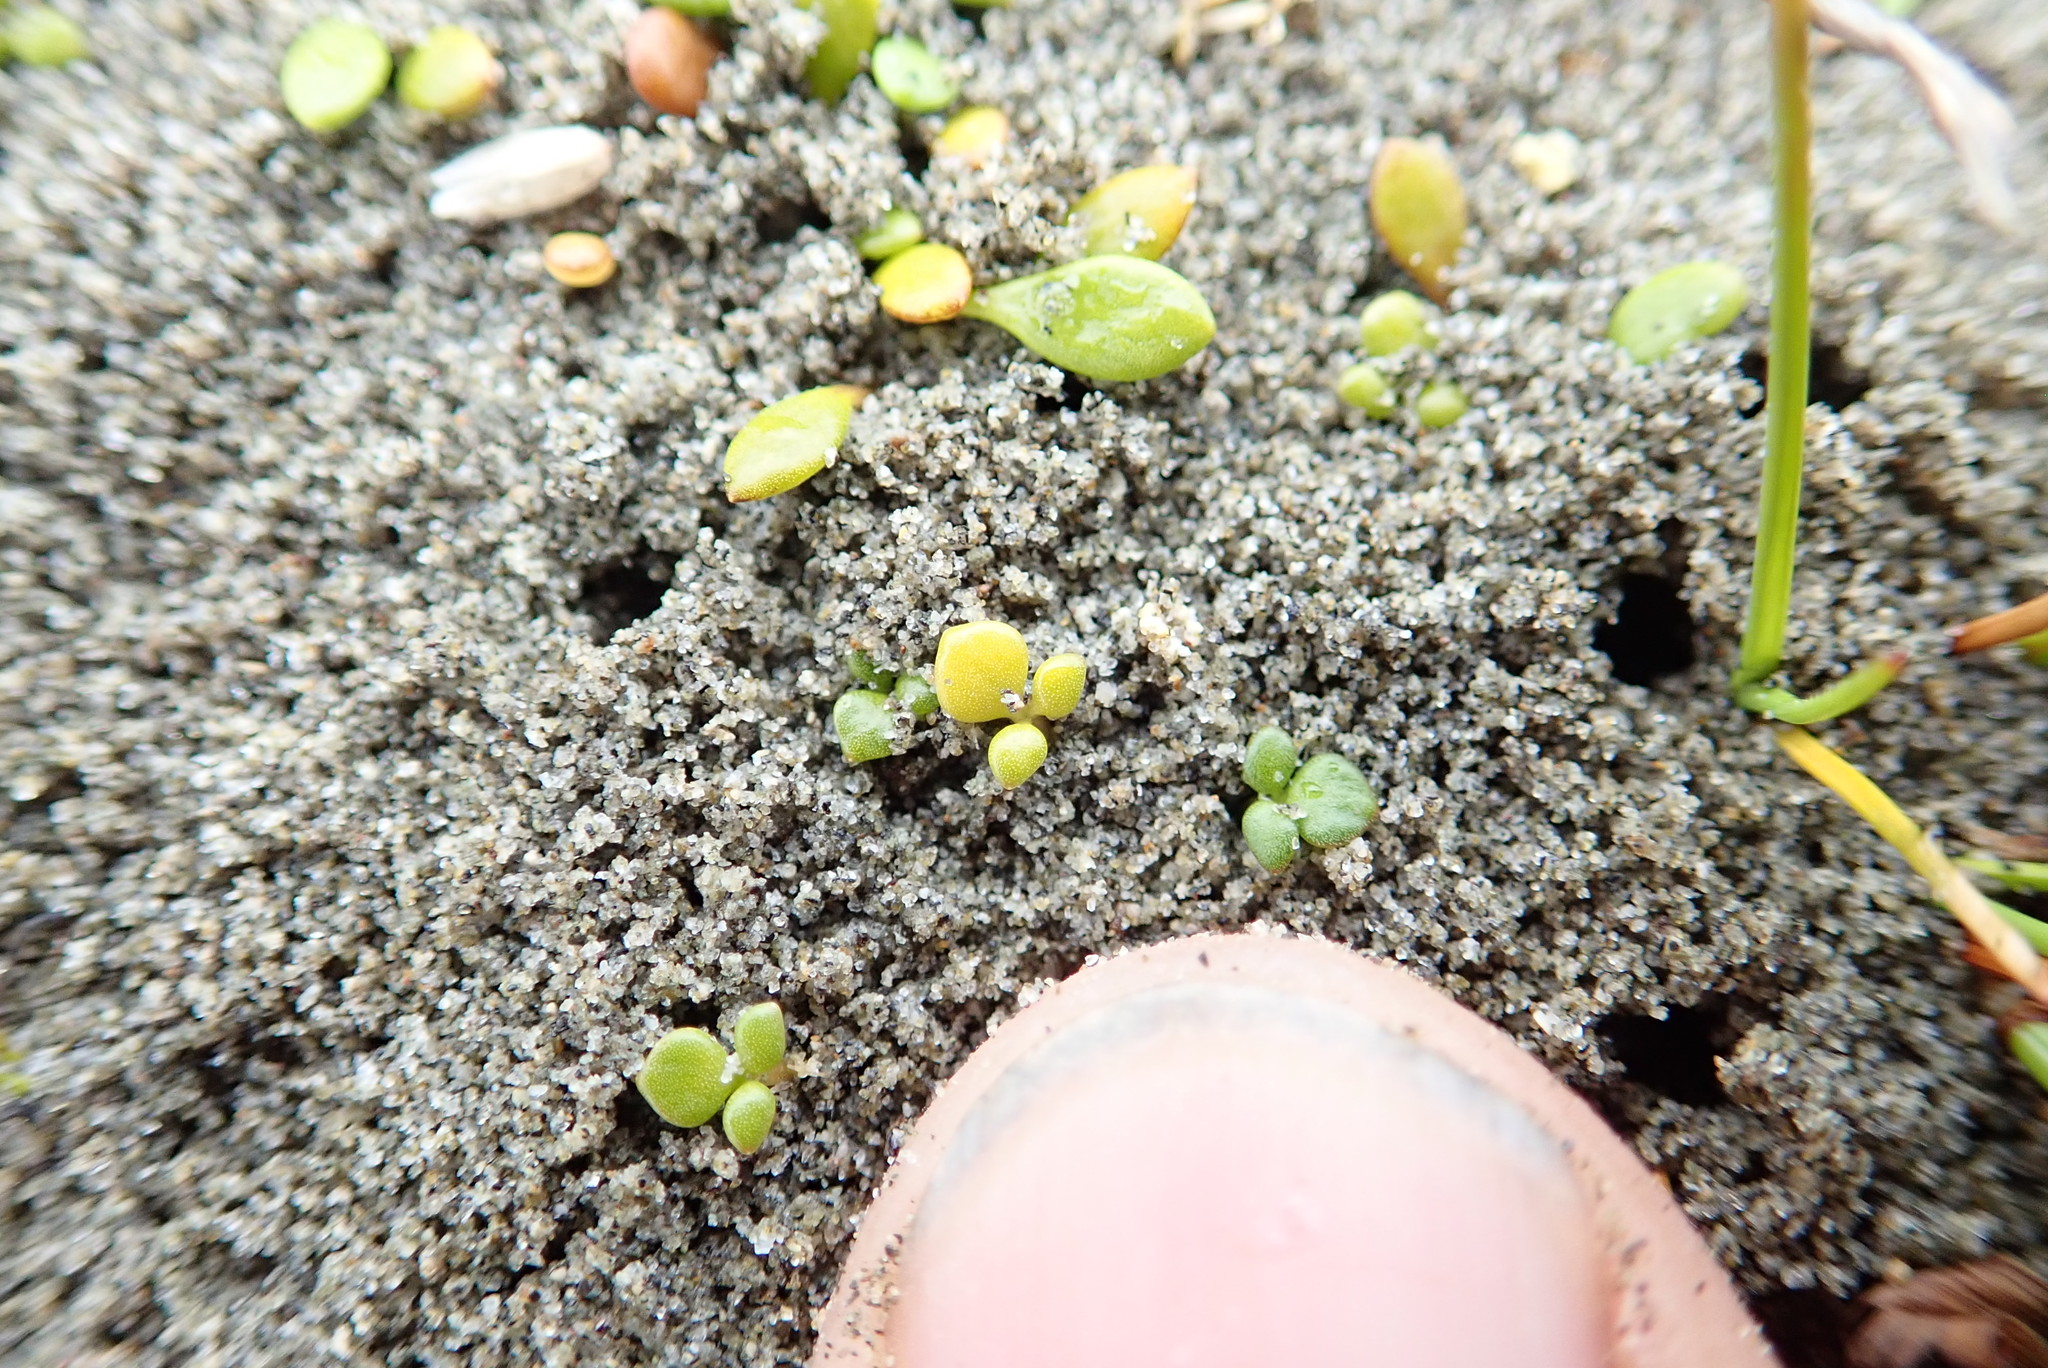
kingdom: Plantae
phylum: Tracheophyta
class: Magnoliopsida
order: Ranunculales
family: Ranunculaceae
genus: Ranunculus
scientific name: Ranunculus acaulis
